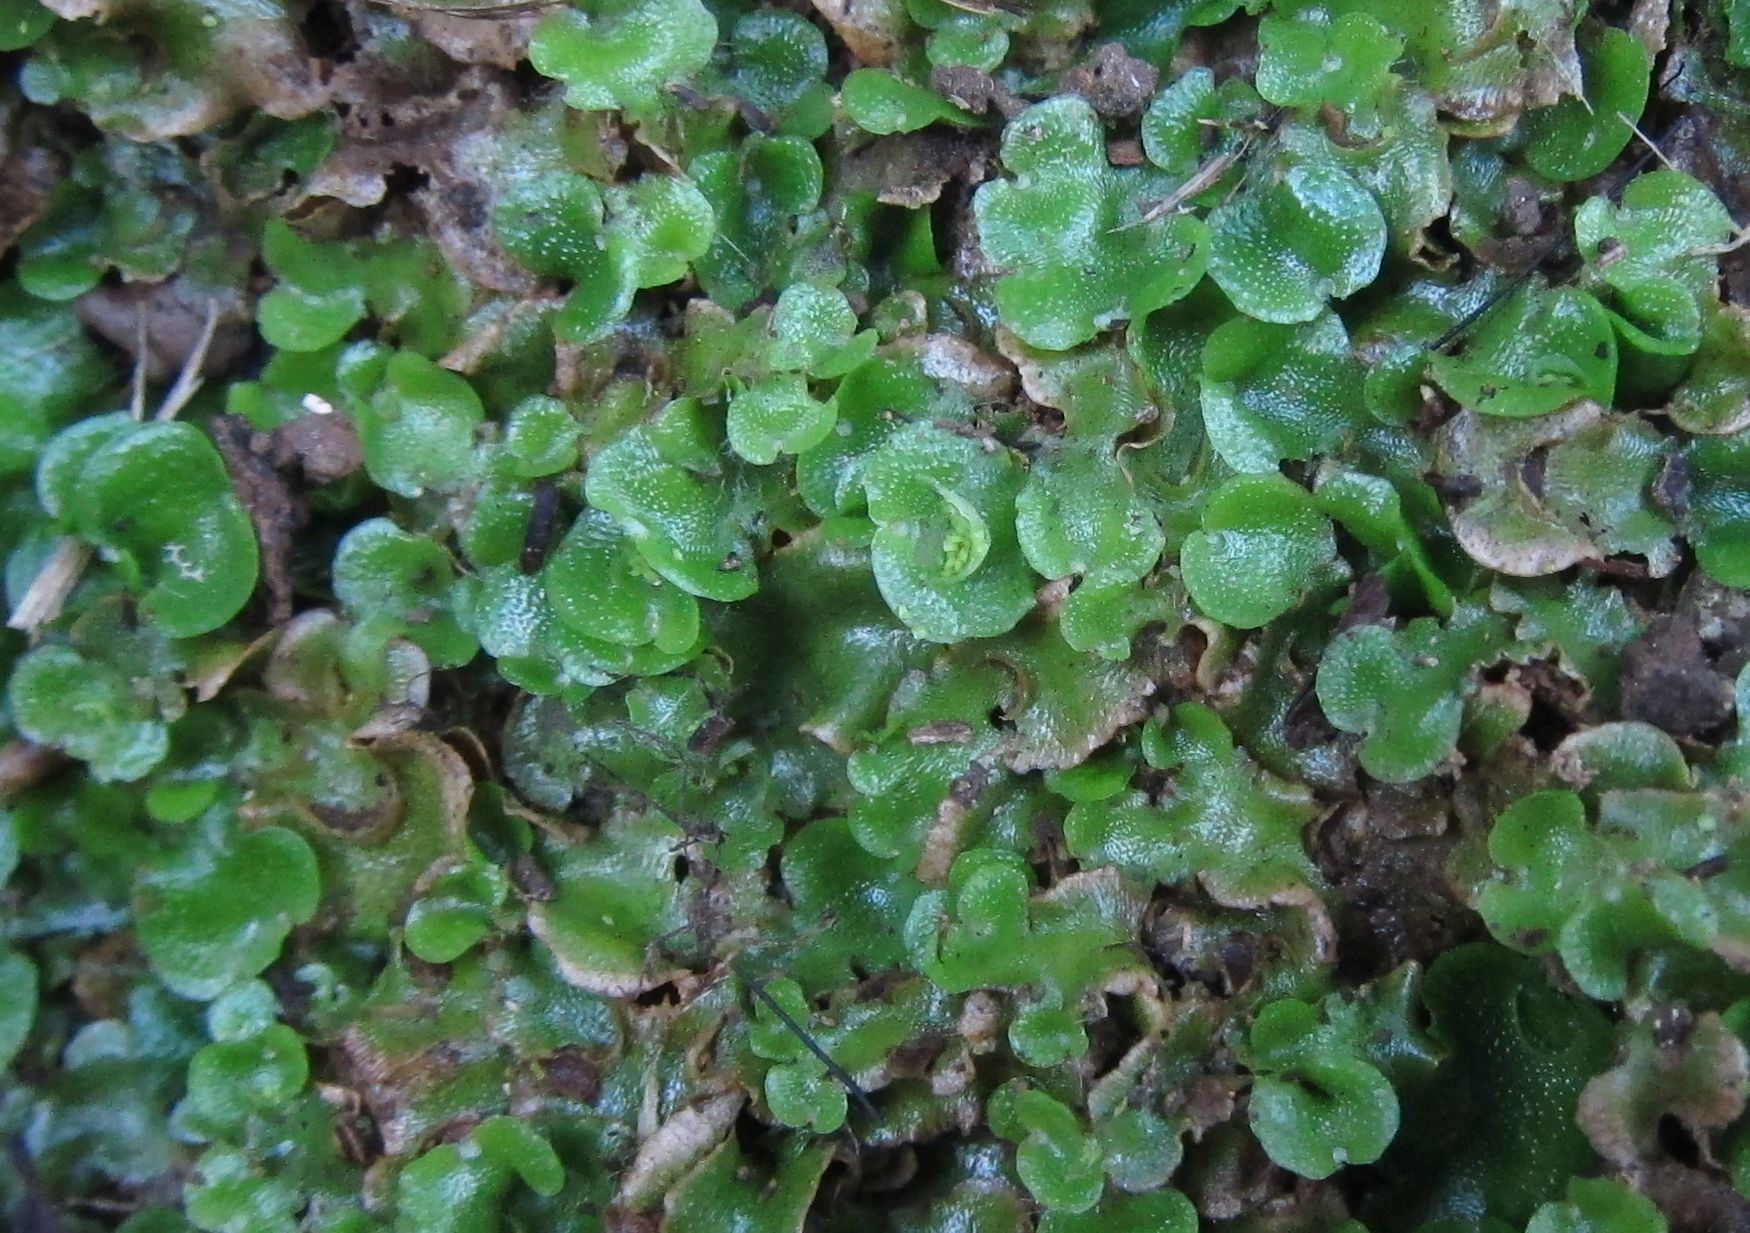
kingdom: Plantae
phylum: Marchantiophyta
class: Marchantiopsida
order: Lunulariales
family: Lunulariaceae
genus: Lunularia
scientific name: Lunularia cruciata
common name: Crescent-cup liverwort
